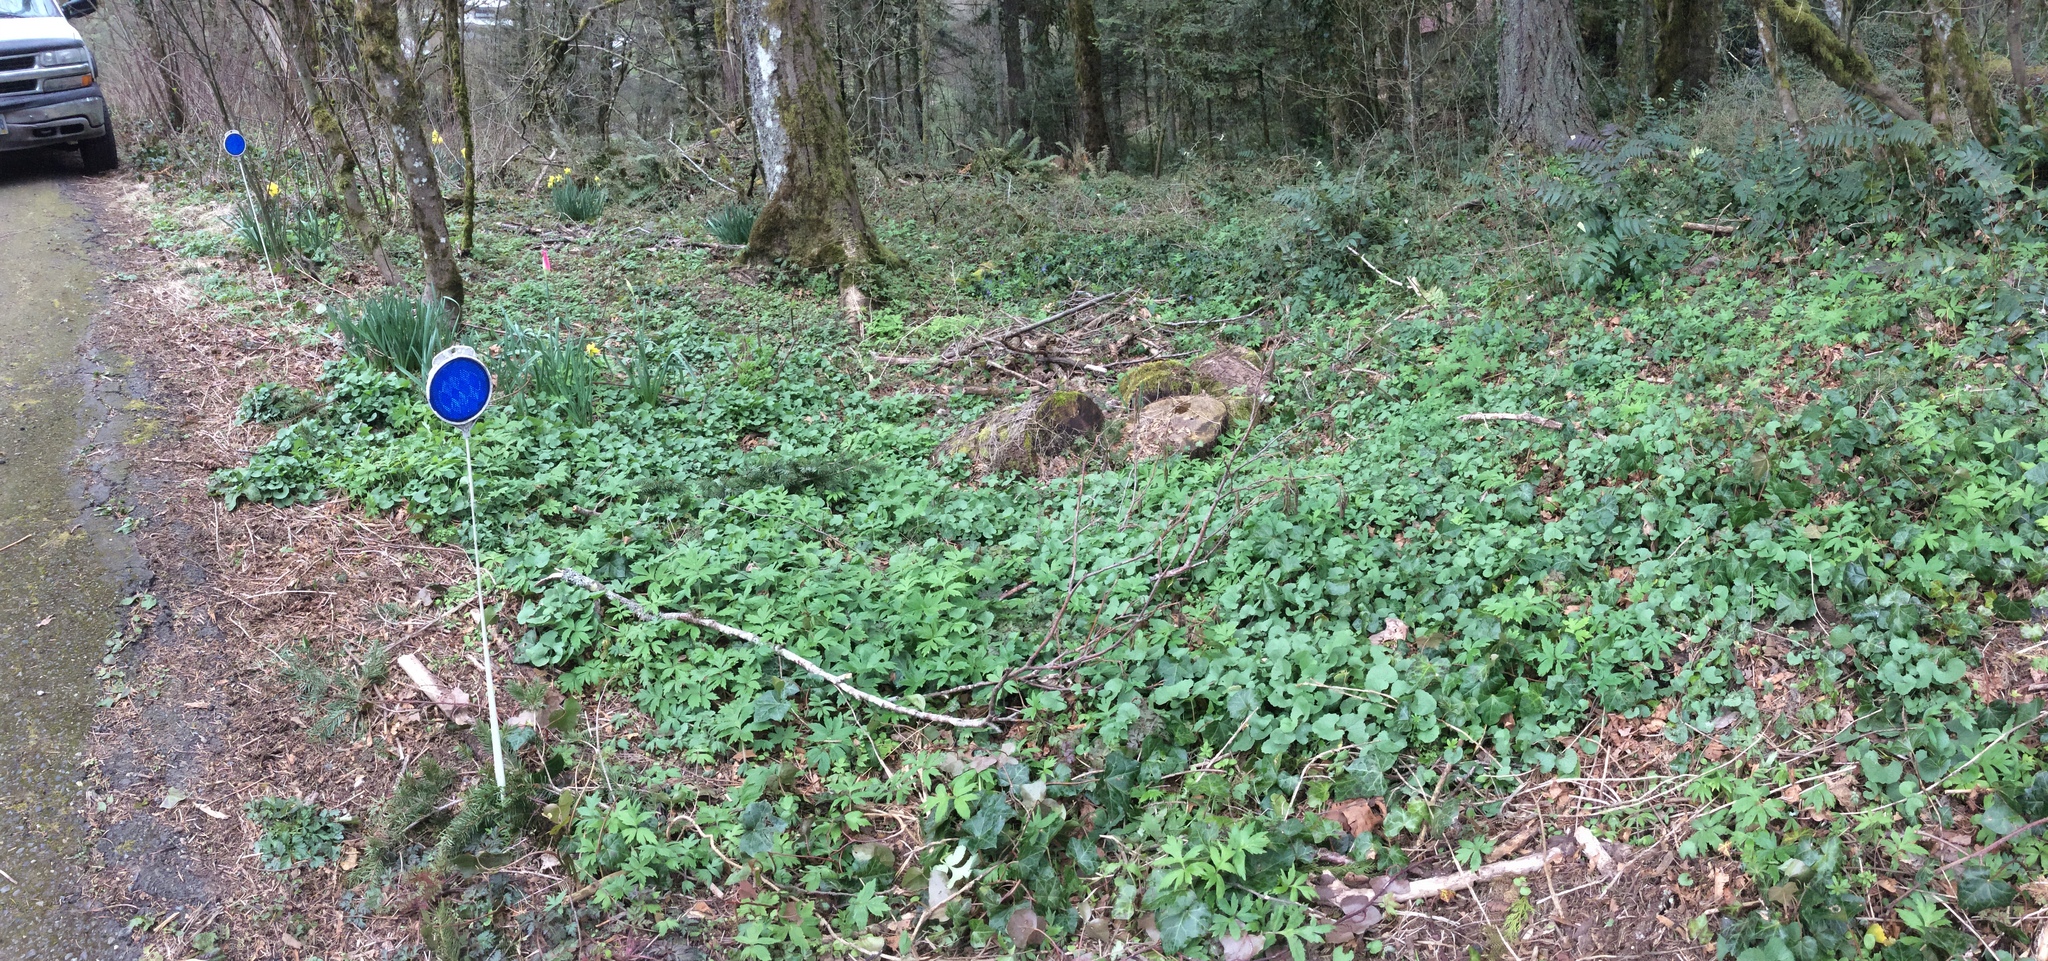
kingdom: Plantae
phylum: Tracheophyta
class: Magnoliopsida
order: Brassicales
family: Brassicaceae
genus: Alliaria
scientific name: Alliaria petiolata
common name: Garlic mustard
